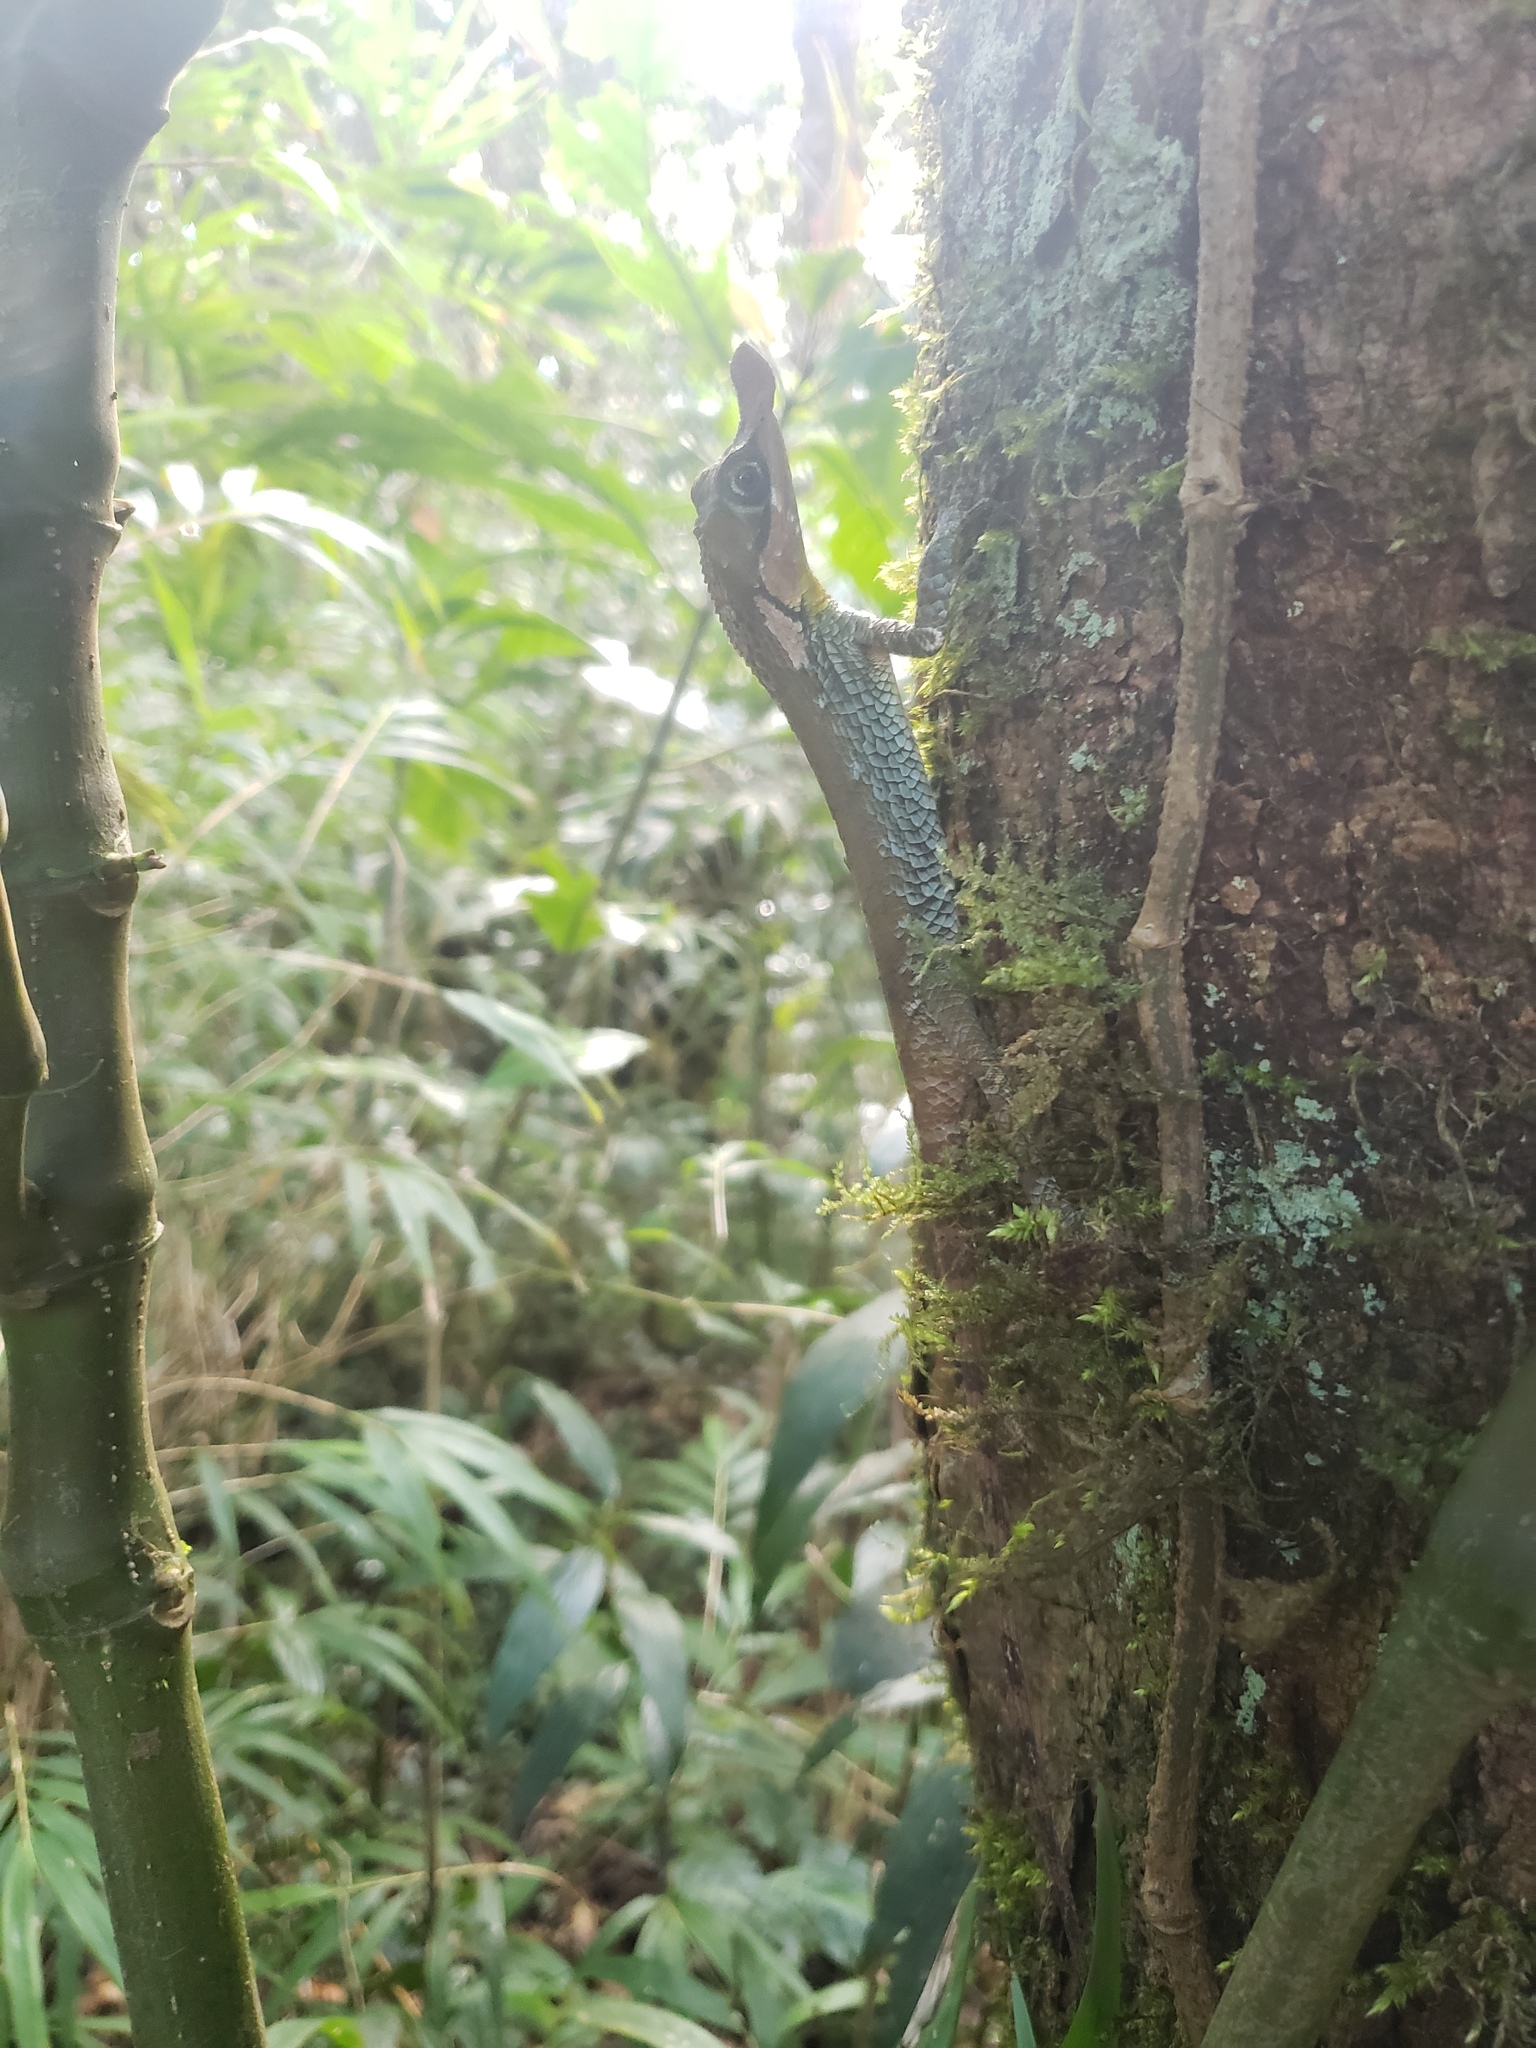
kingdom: Animalia
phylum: Chordata
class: Squamata
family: Agamidae
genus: Ceratophora
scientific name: Ceratophora tennentii
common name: Rhinoceros agama
